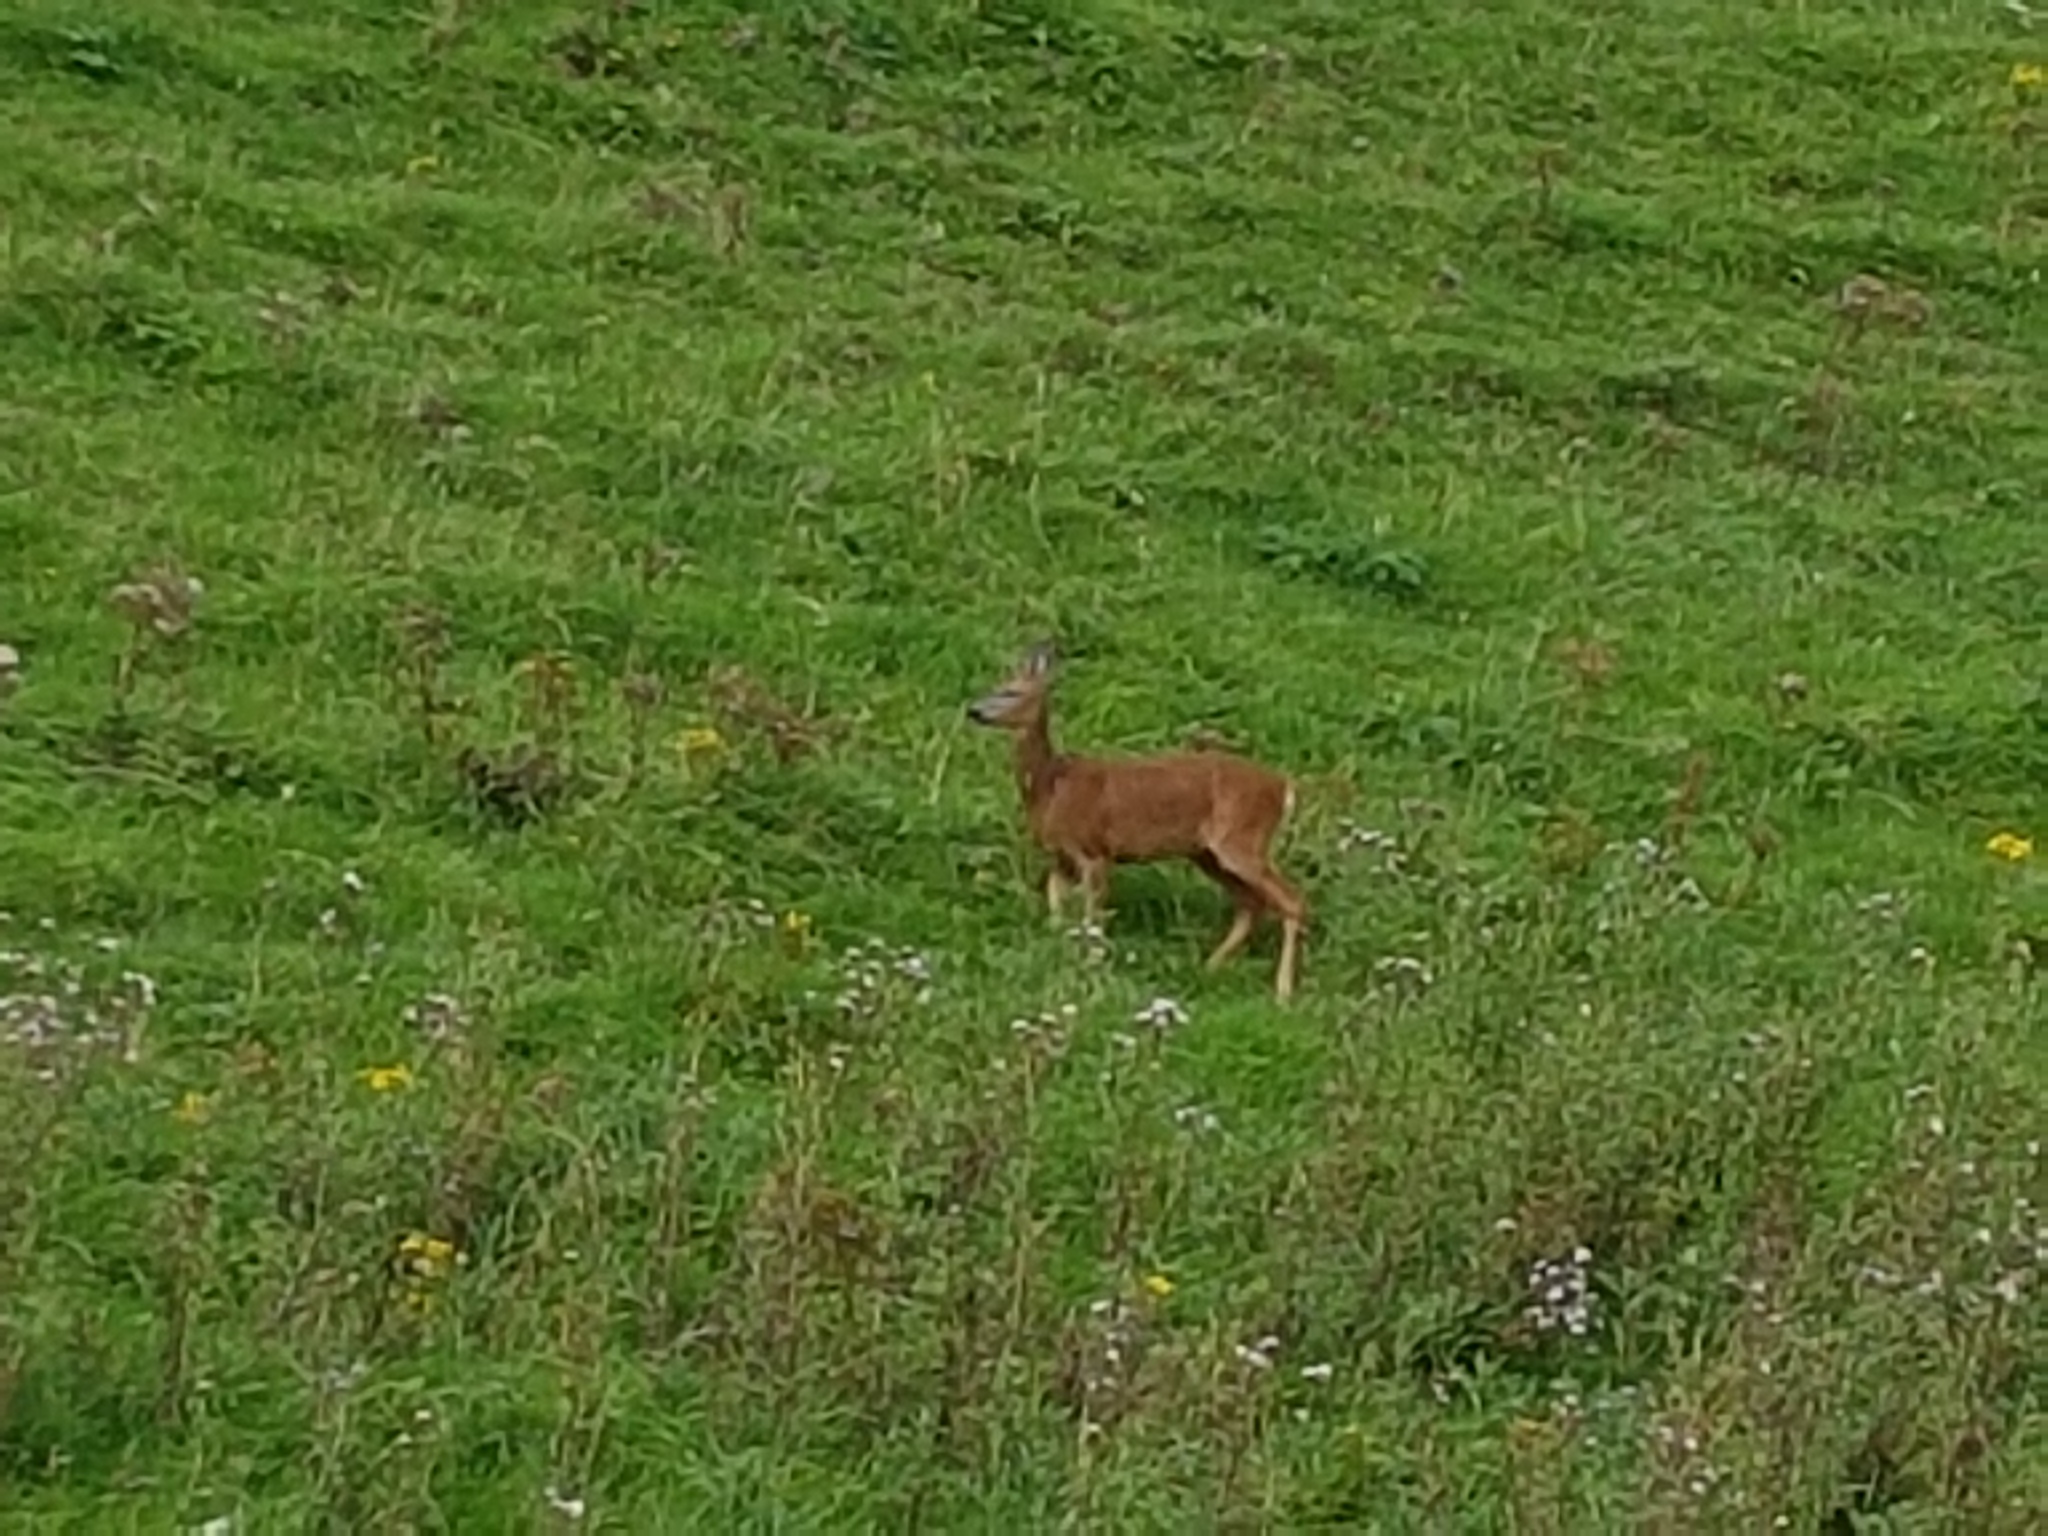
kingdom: Animalia
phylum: Chordata
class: Mammalia
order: Artiodactyla
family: Cervidae
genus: Capreolus
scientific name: Capreolus capreolus
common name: Western roe deer
